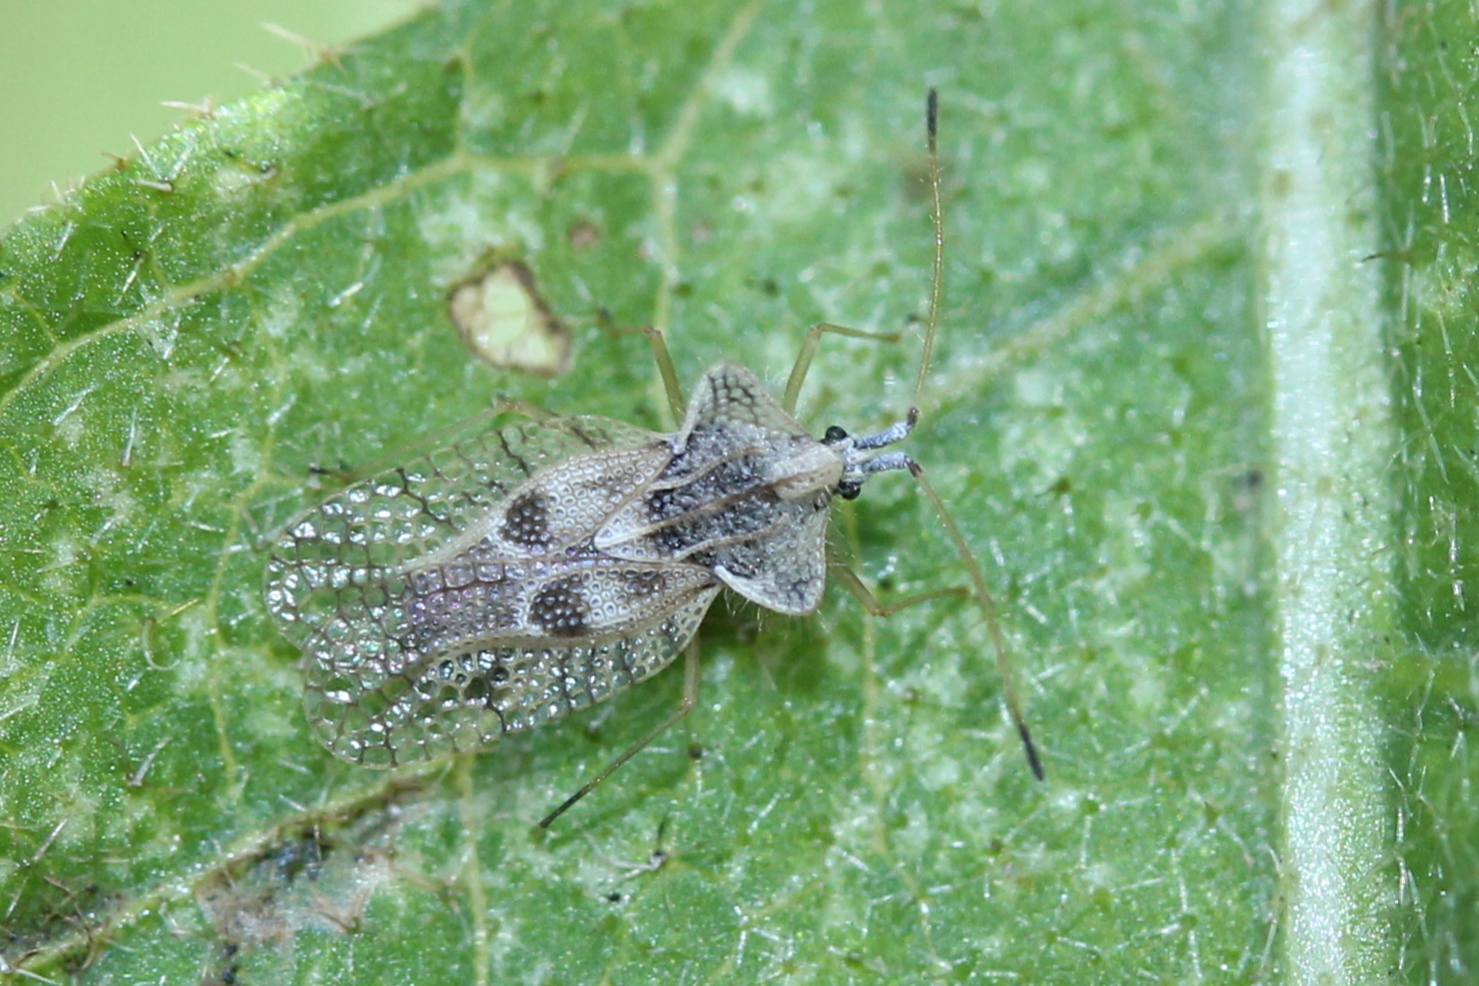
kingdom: Animalia
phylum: Arthropoda
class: Insecta
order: Hemiptera
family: Tingidae
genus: Gargaphia
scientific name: Gargaphia solani
